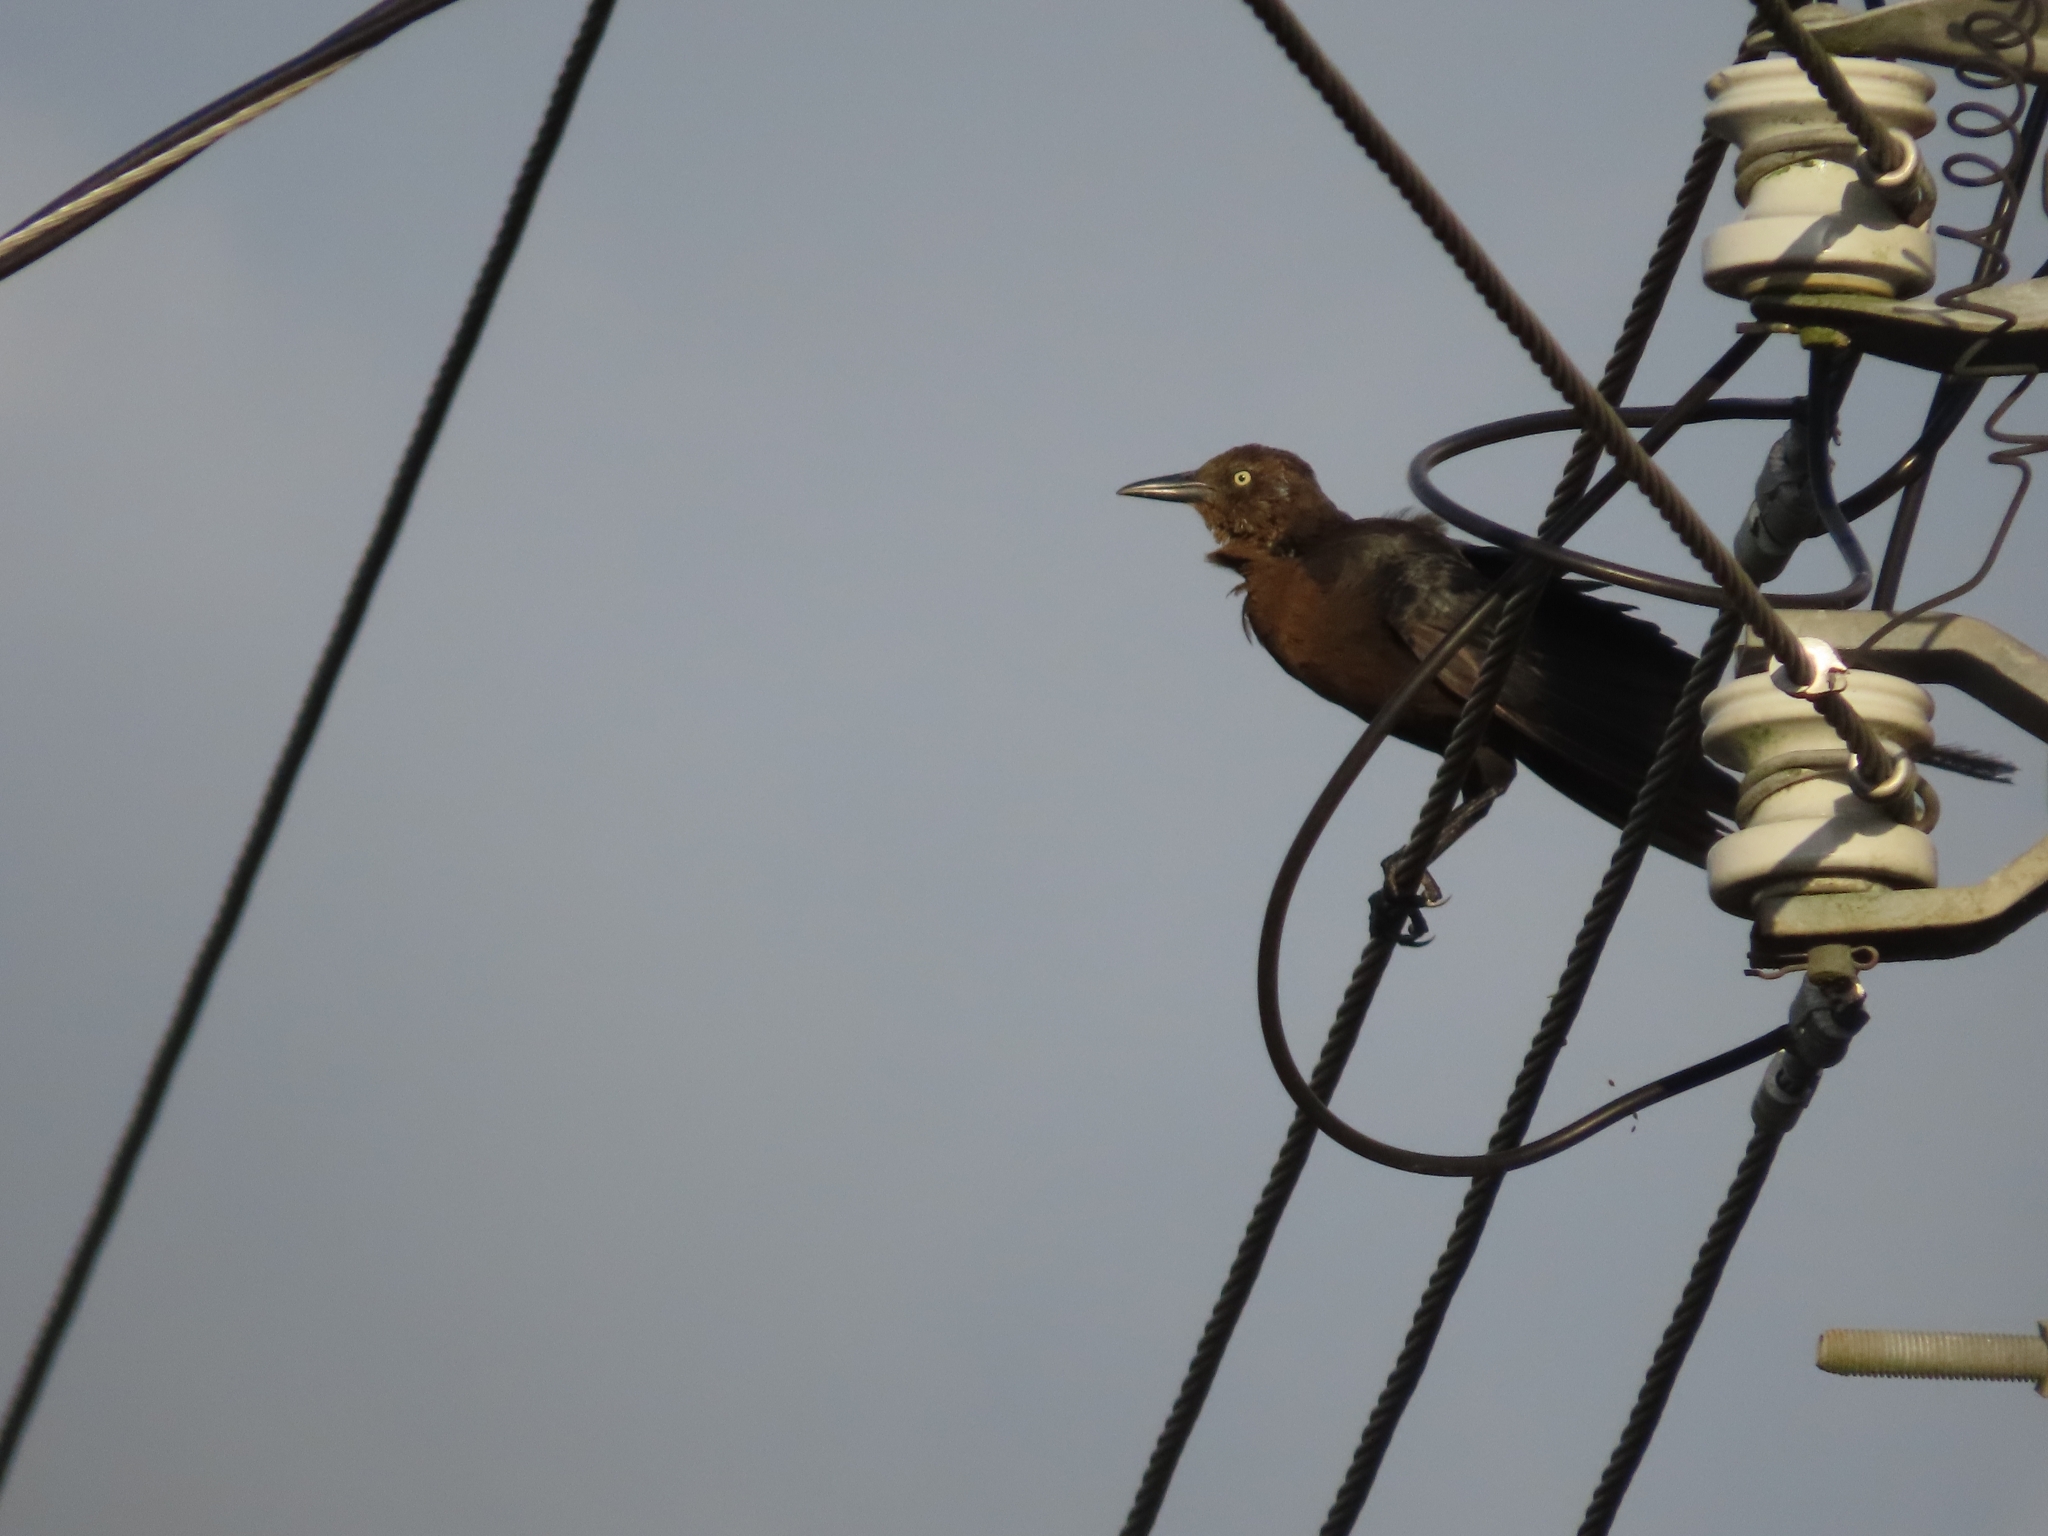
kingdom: Animalia
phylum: Chordata
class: Aves
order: Passeriformes
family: Icteridae
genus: Quiscalus
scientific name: Quiscalus mexicanus
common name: Great-tailed grackle
